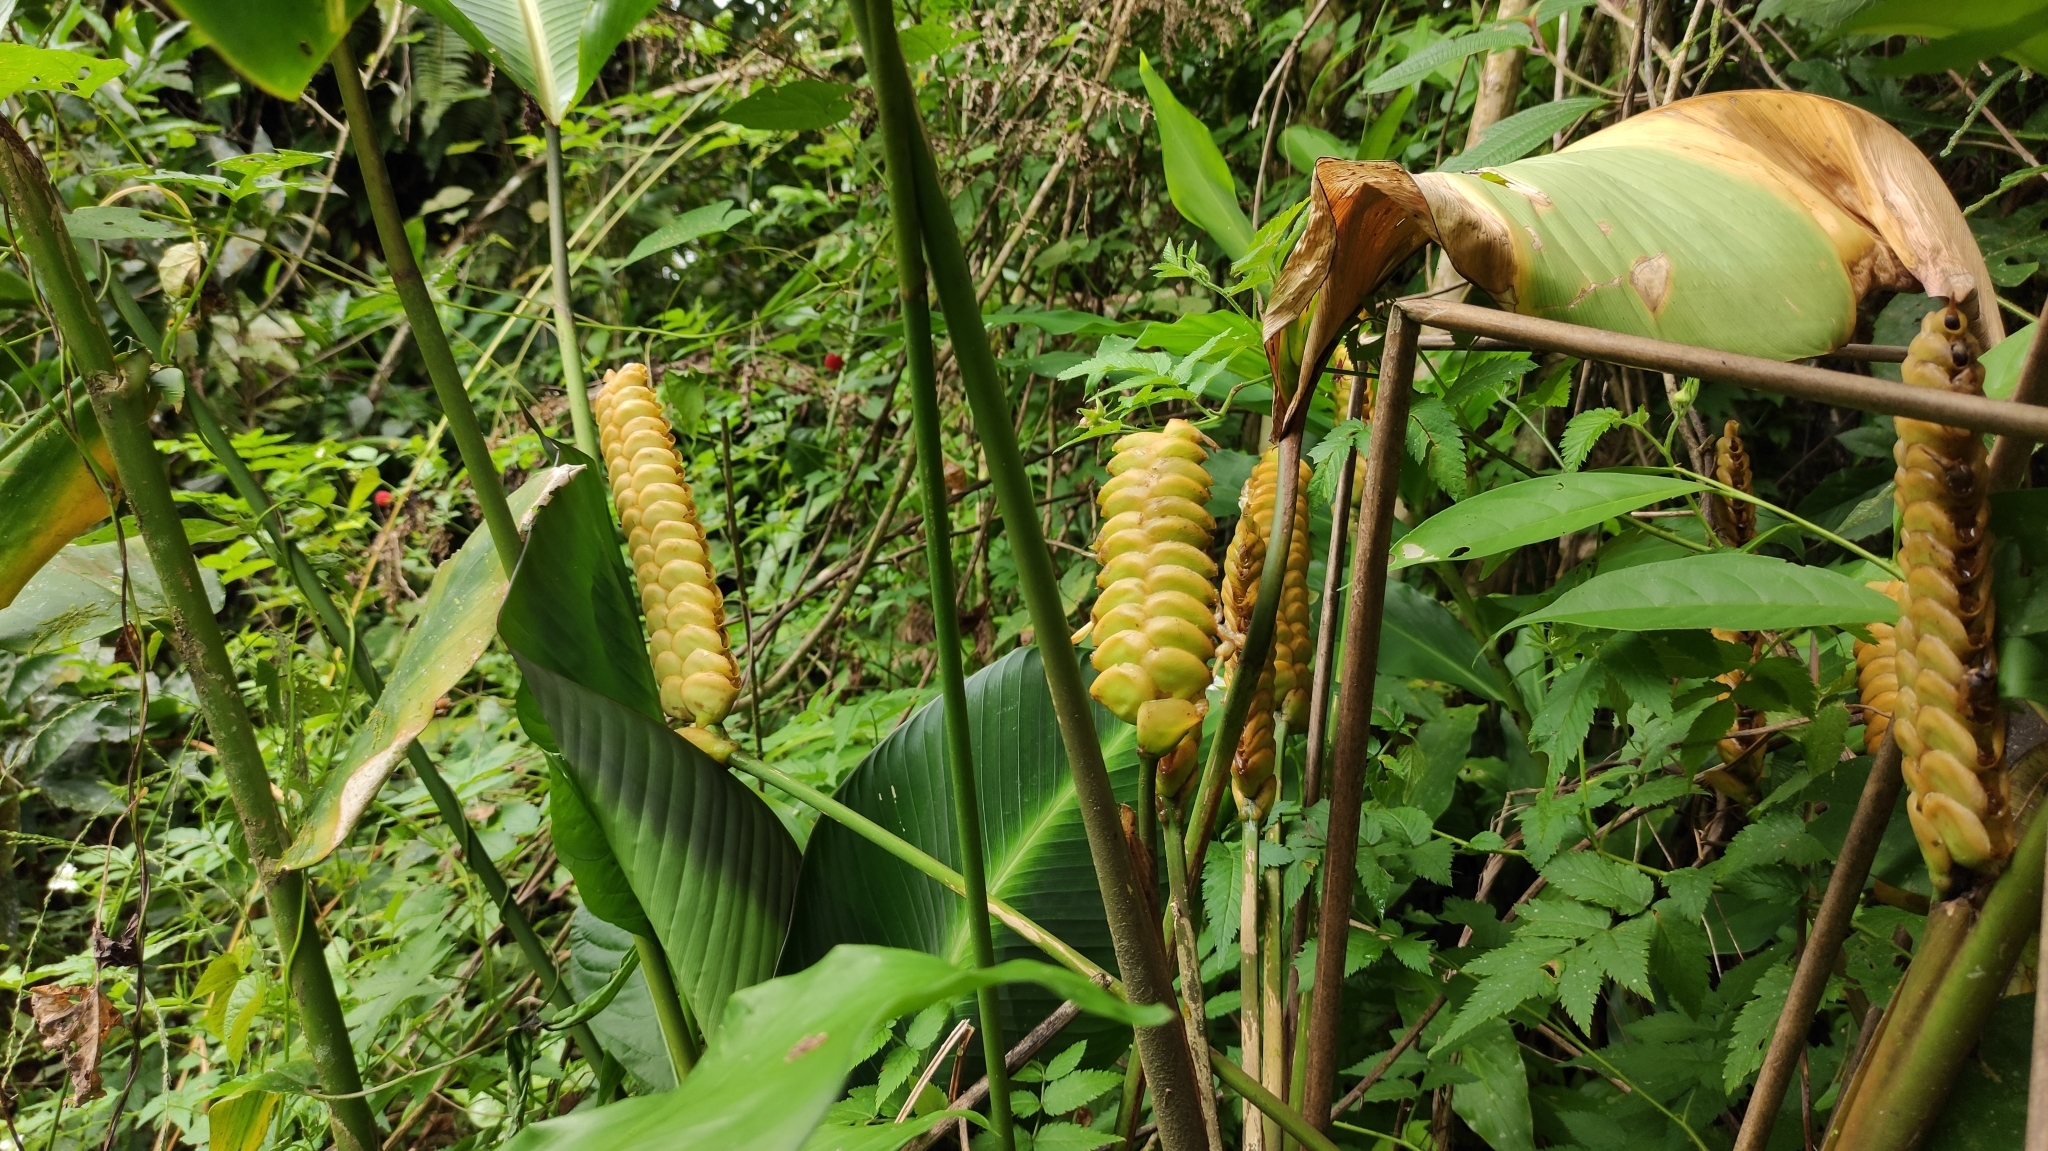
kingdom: Plantae
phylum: Tracheophyta
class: Liliopsida
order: Zingiberales
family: Marantaceae
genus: Calathea
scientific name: Calathea crotalifera
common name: Rattlesnake plant
